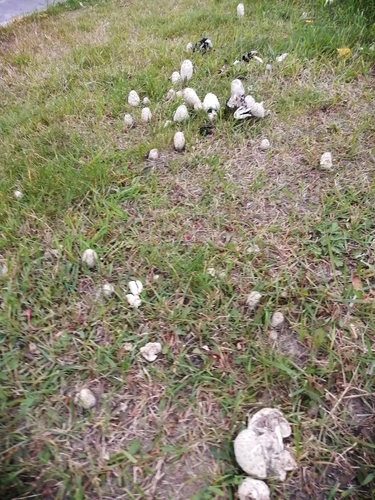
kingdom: Fungi
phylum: Basidiomycota
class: Agaricomycetes
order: Agaricales
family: Agaricaceae
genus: Coprinus
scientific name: Coprinus comatus
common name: Lawyer's wig
